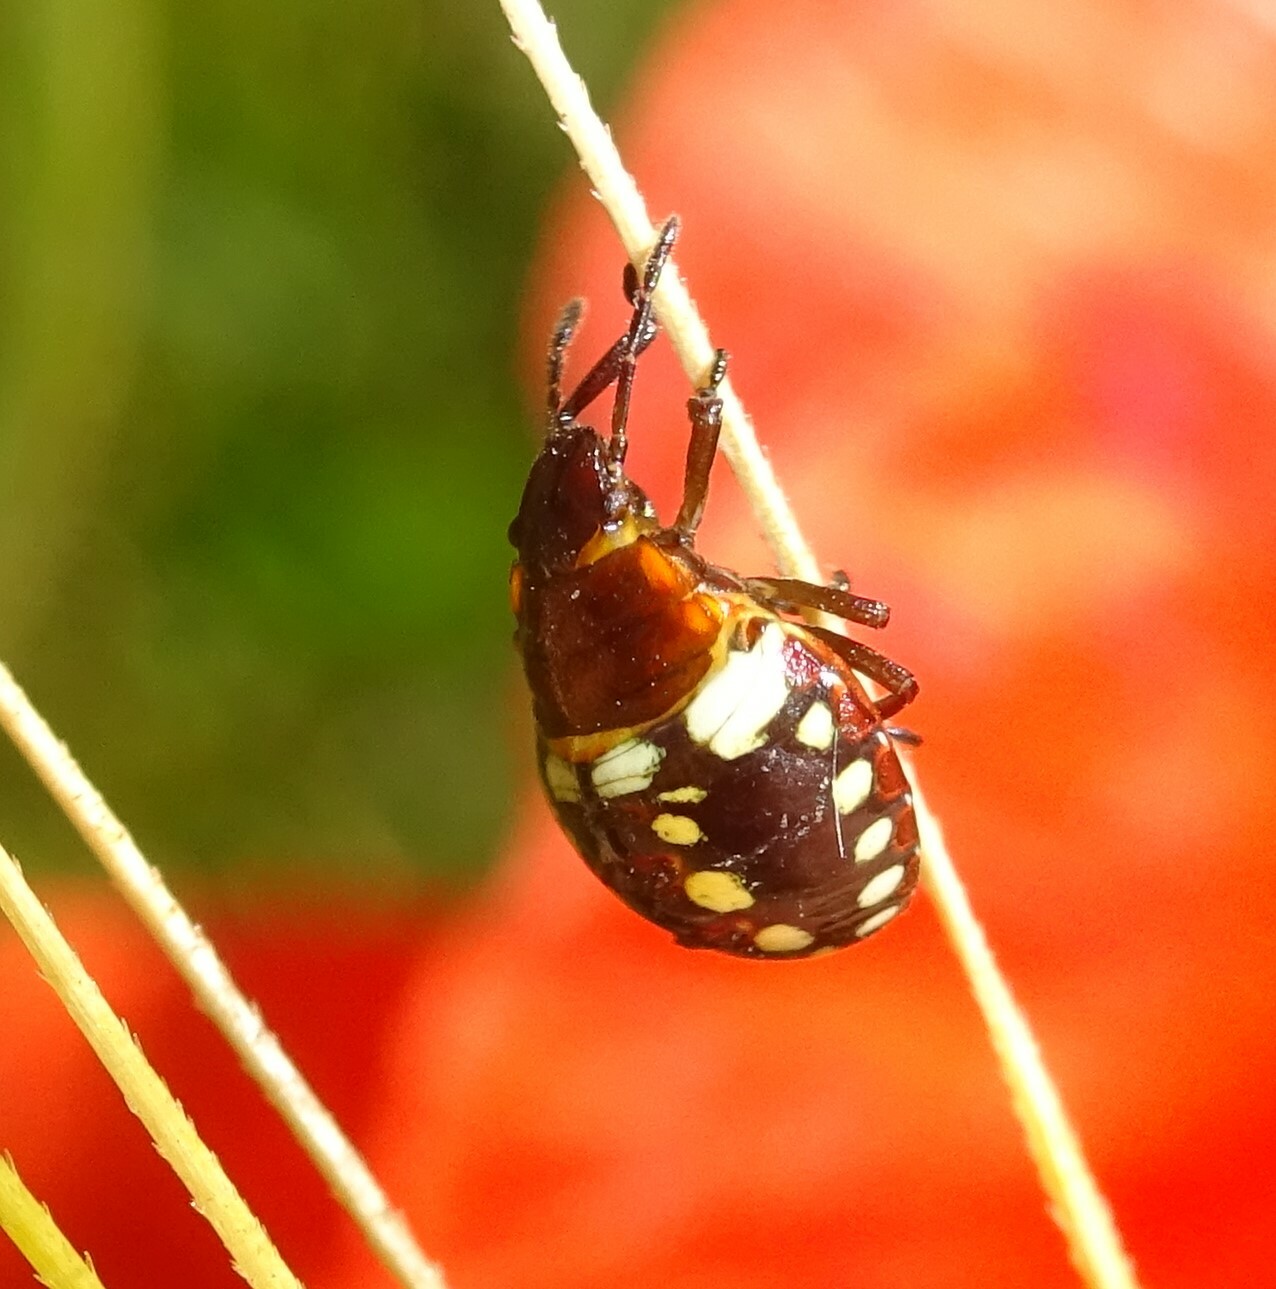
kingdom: Animalia
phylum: Arthropoda
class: Insecta
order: Hemiptera
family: Pentatomidae
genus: Nezara
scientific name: Nezara viridula
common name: Southern green stink bug
